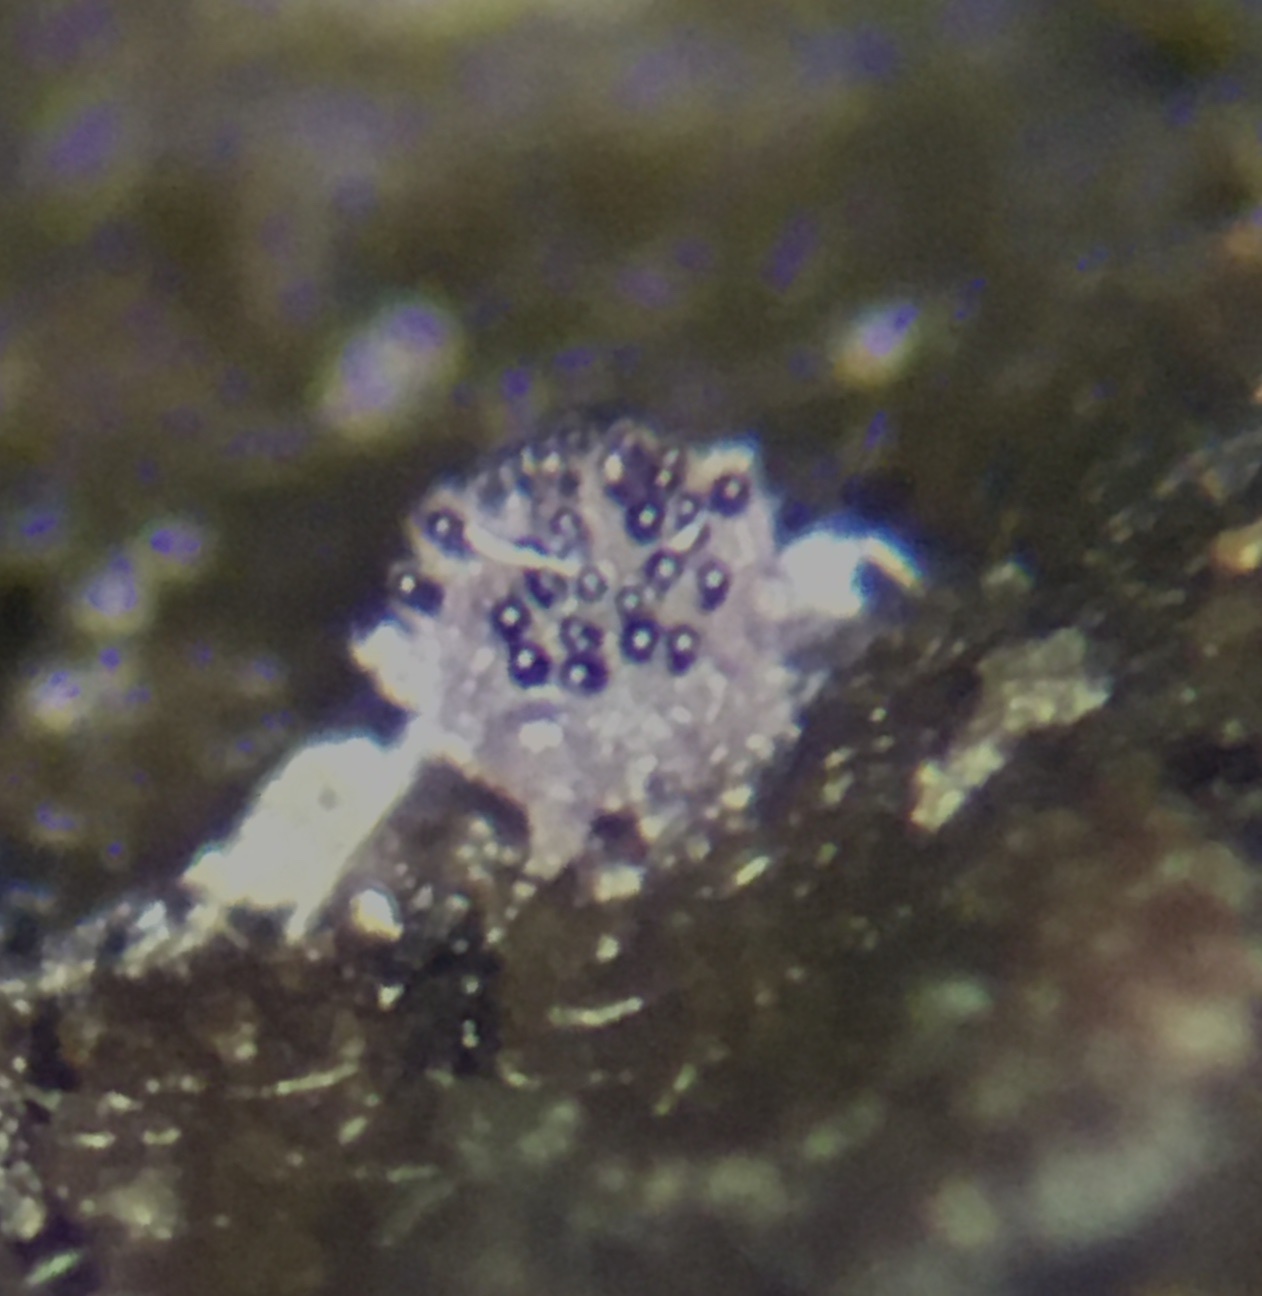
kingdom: Fungi
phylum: Ascomycota
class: Pezizomycetes
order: Pezizales
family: Ascobolaceae
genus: Saccobolus
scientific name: Saccobolus versicolor
